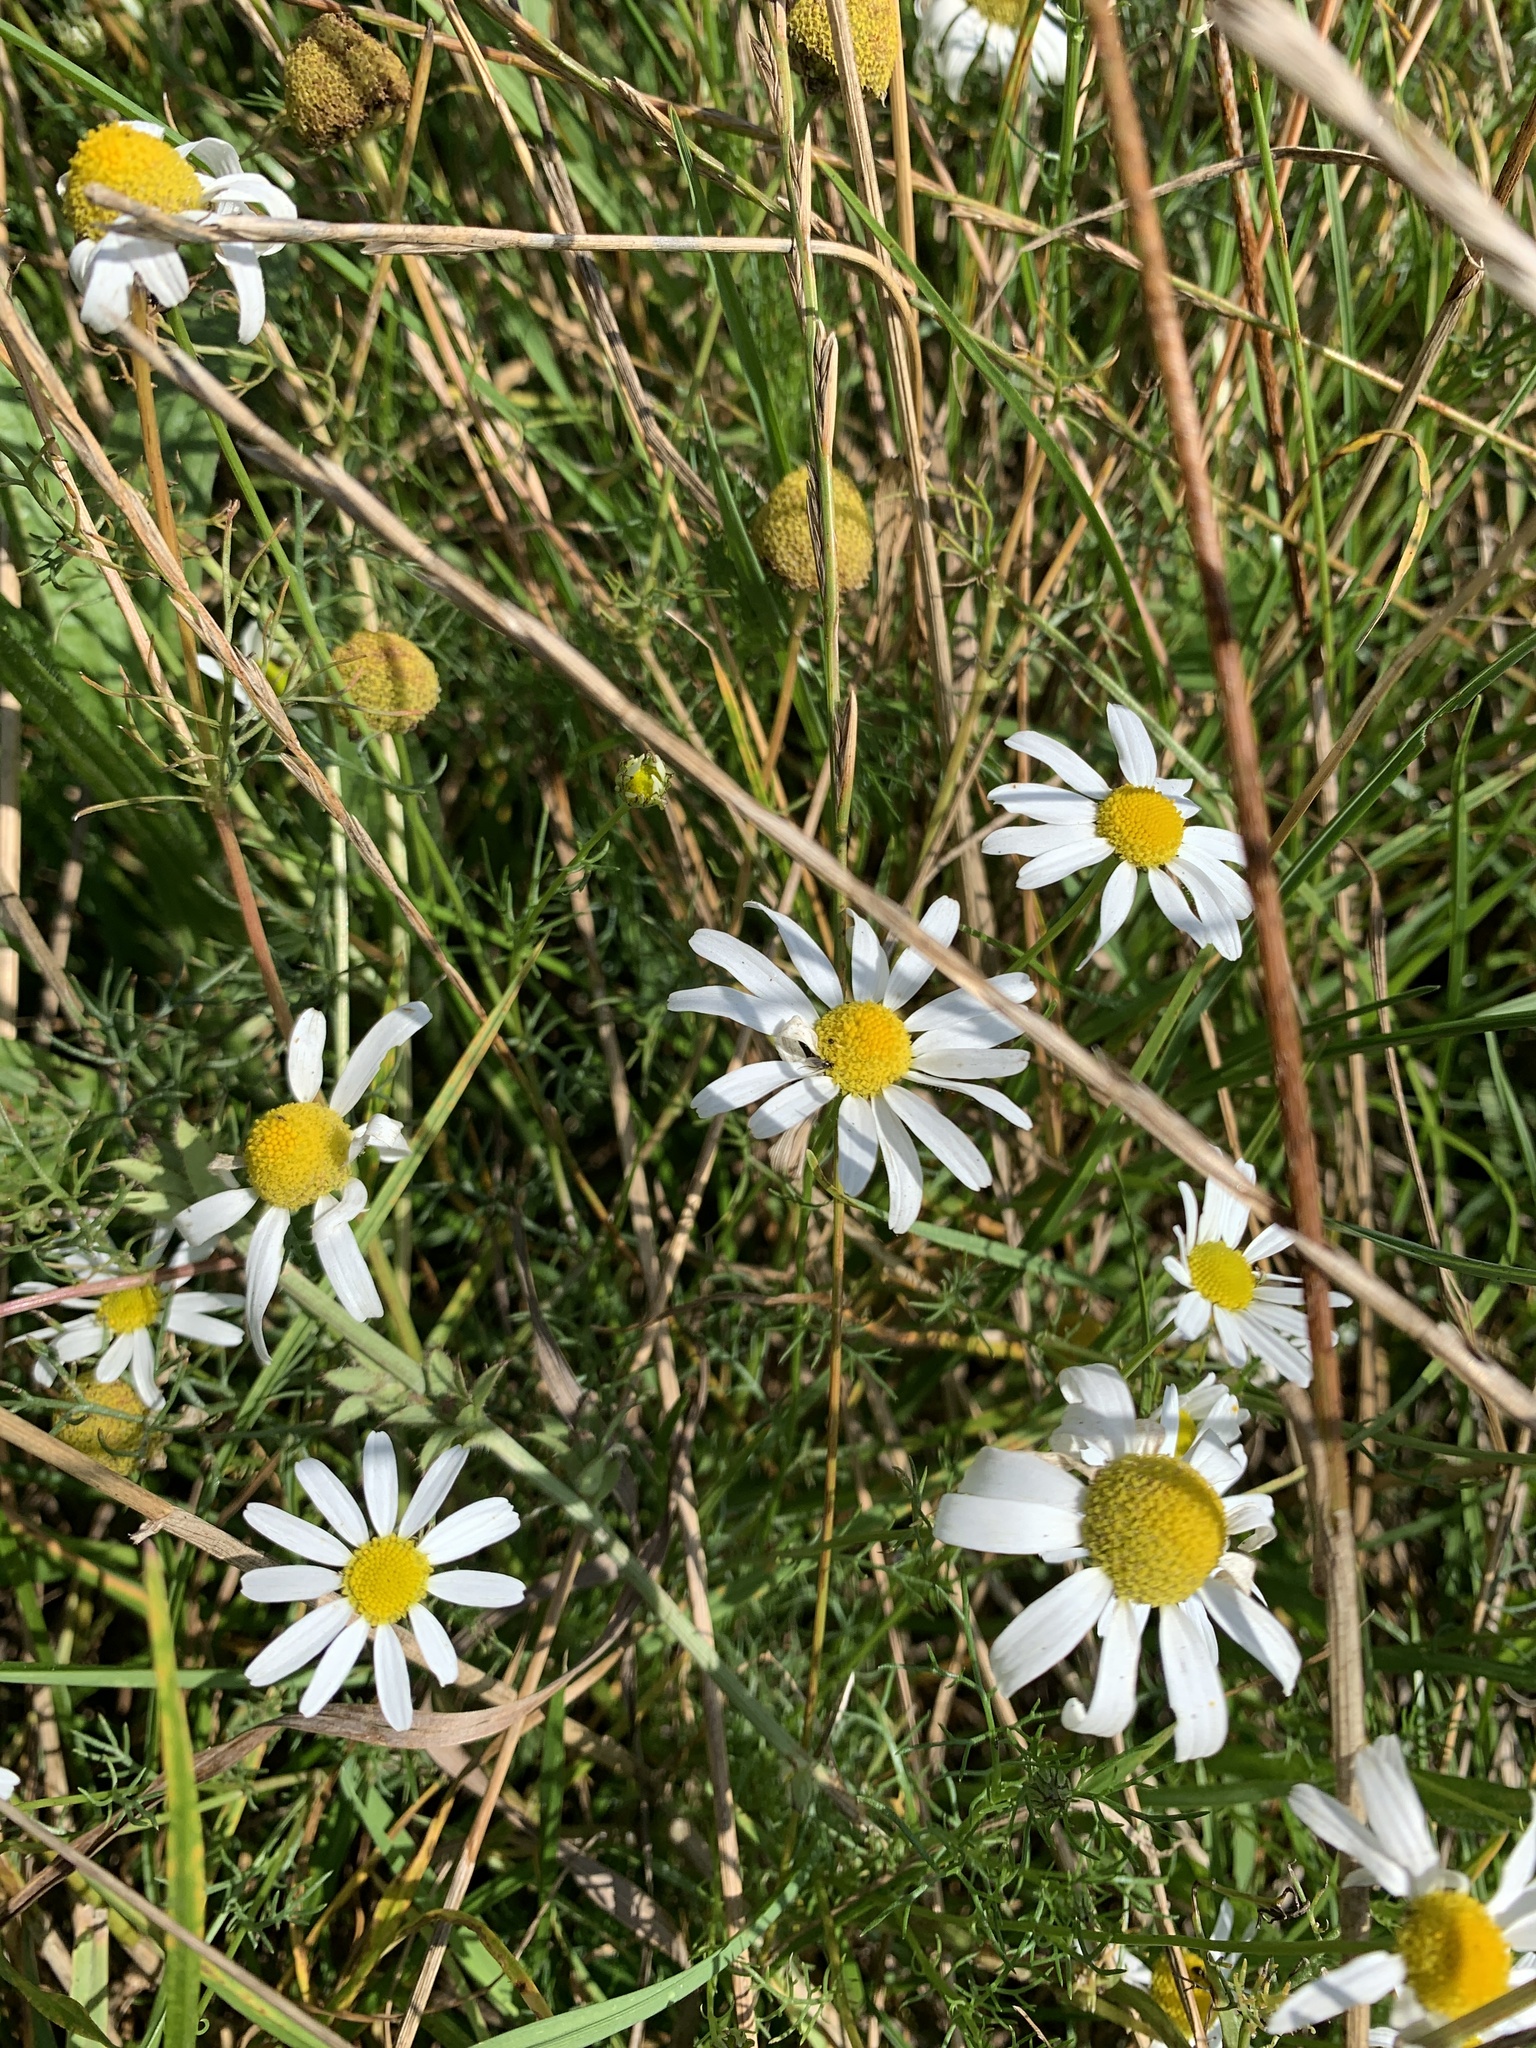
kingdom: Plantae
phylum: Tracheophyta
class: Magnoliopsida
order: Asterales
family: Asteraceae
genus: Tripleurospermum
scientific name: Tripleurospermum inodorum
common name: Scentless mayweed
